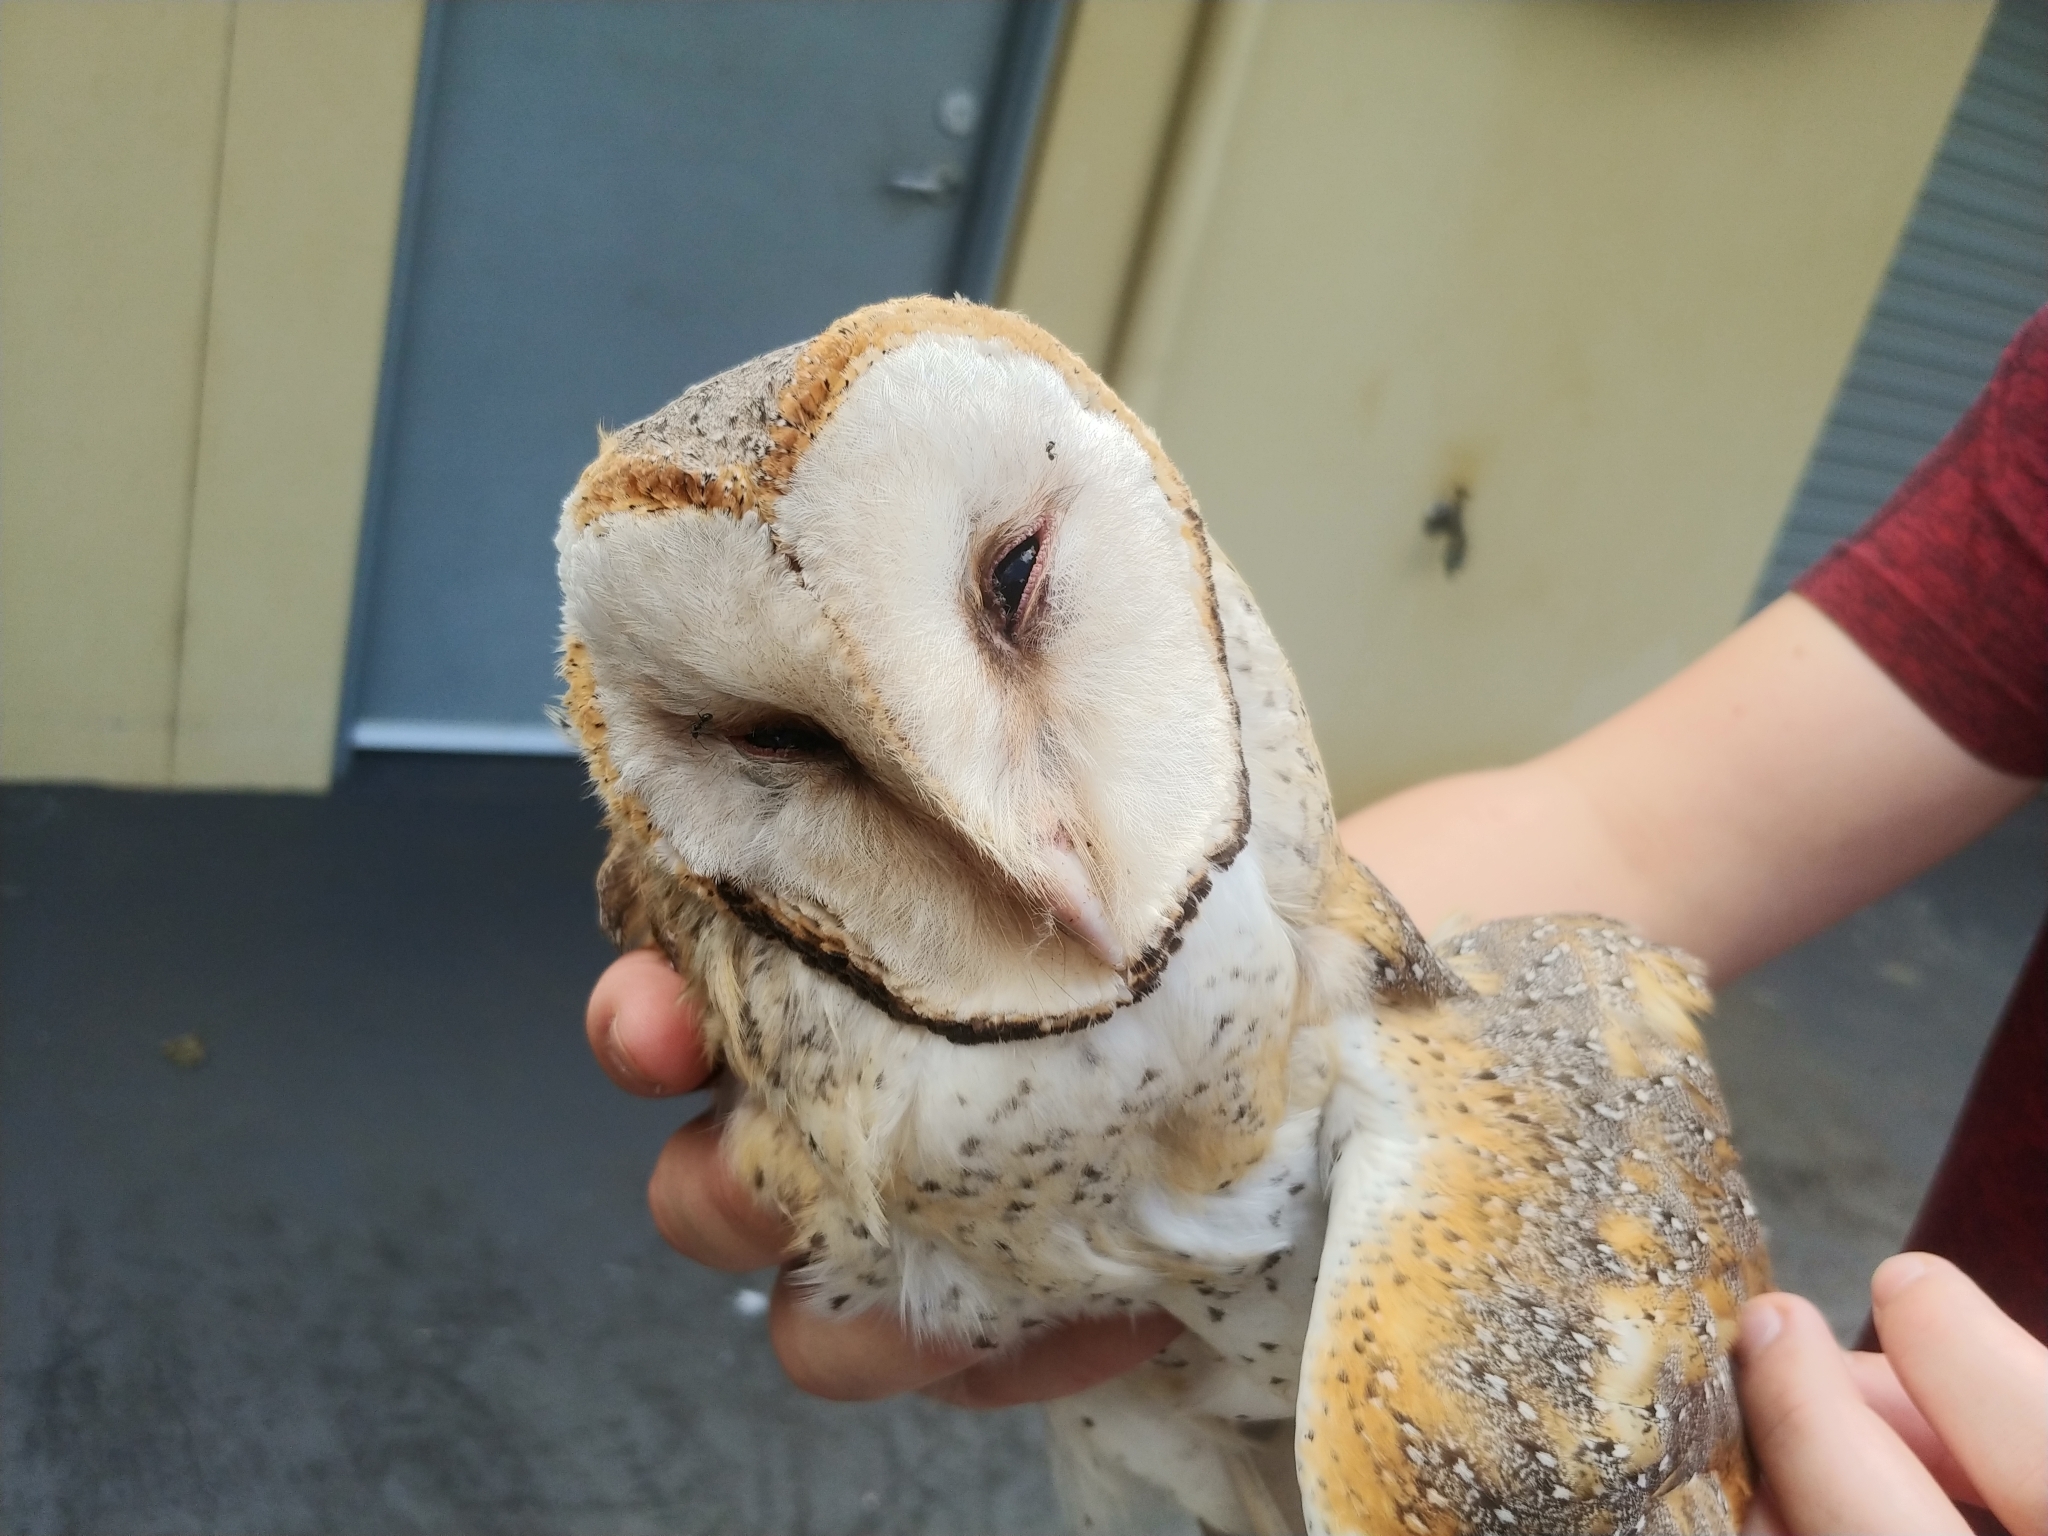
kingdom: Animalia
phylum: Chordata
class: Aves
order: Strigiformes
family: Tytonidae
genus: Tyto
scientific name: Tyto alba
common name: Barn owl
